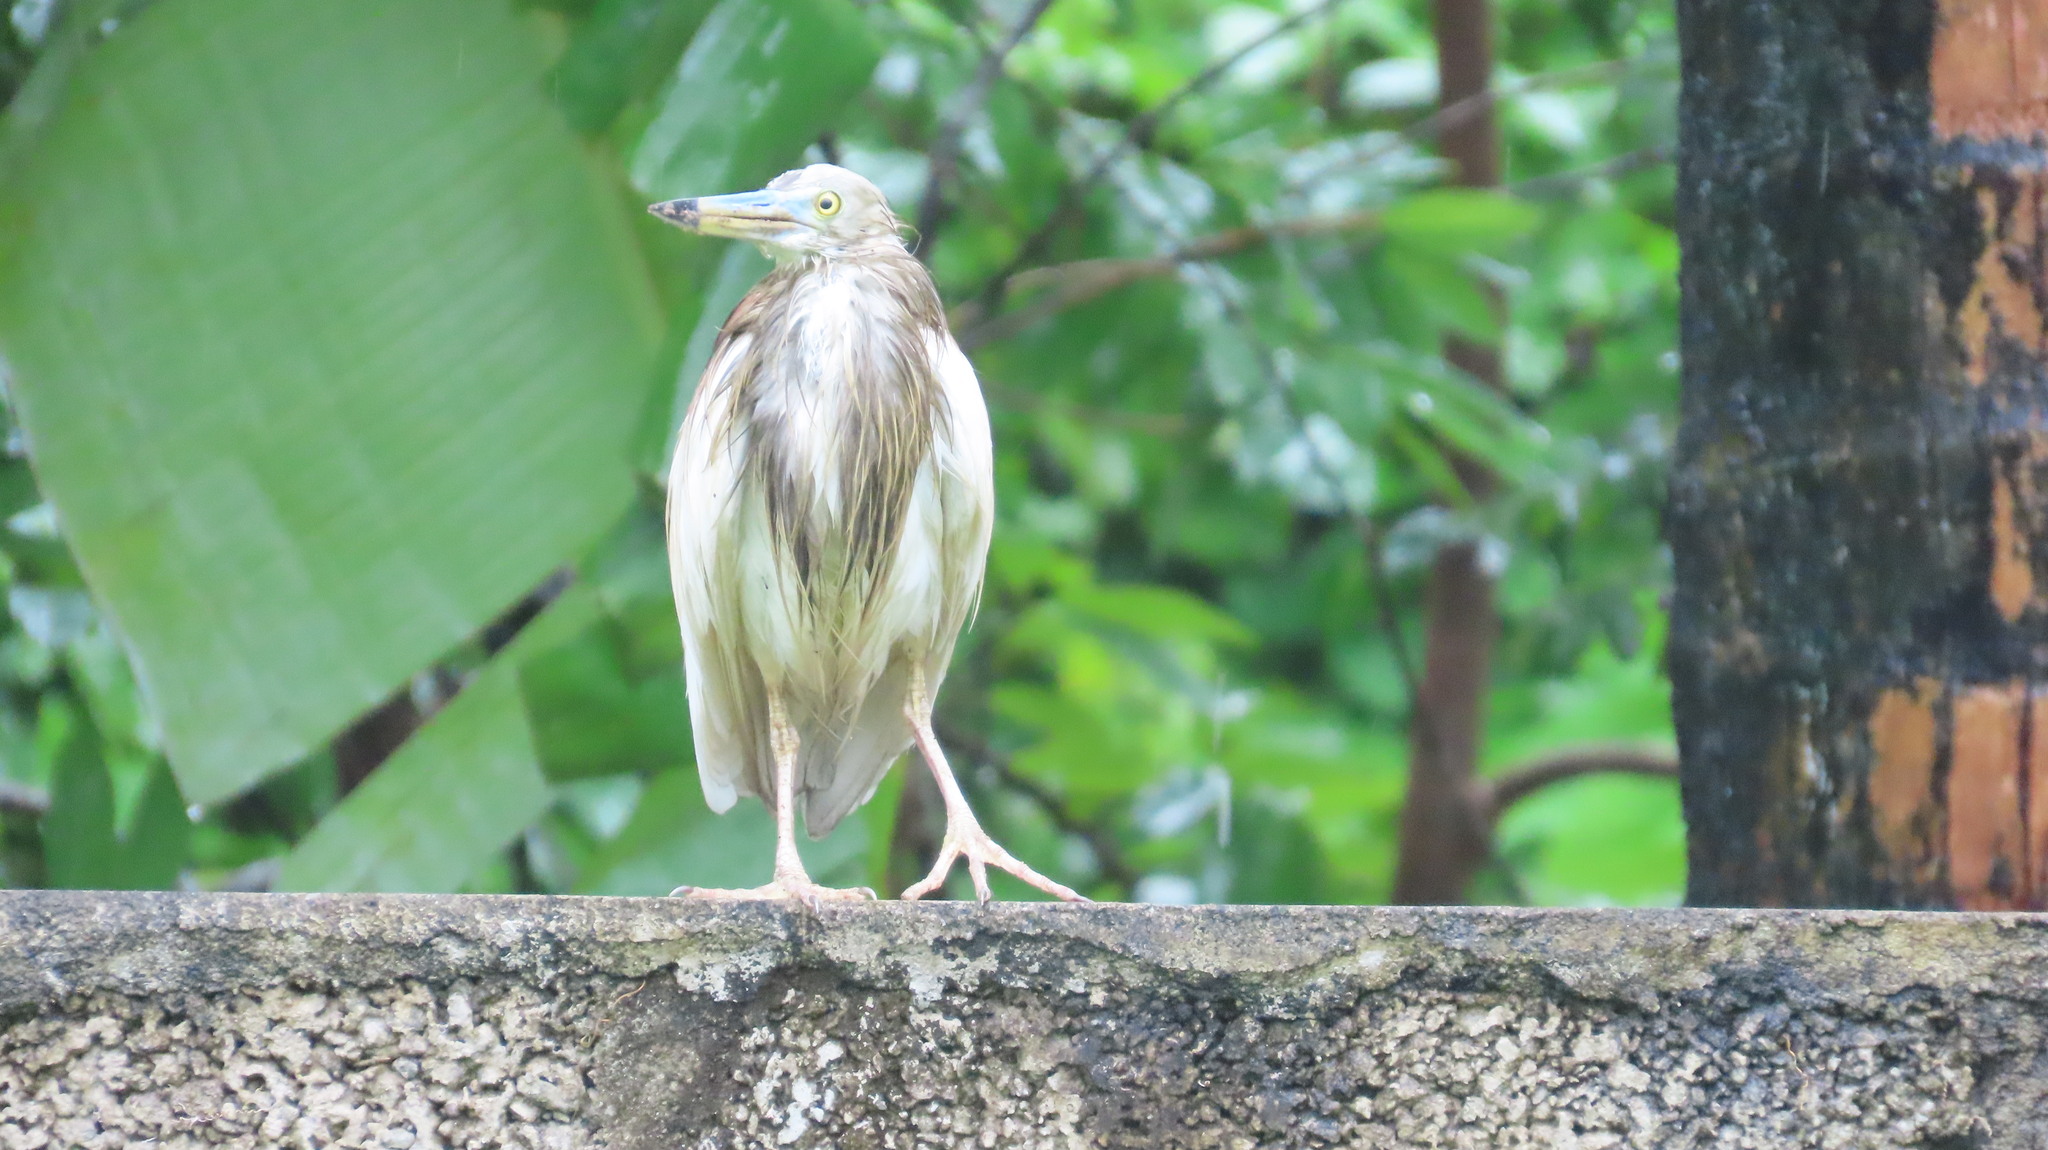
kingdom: Animalia
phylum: Chordata
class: Aves
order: Pelecaniformes
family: Ardeidae
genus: Ardeola
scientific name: Ardeola grayii
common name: Indian pond heron
